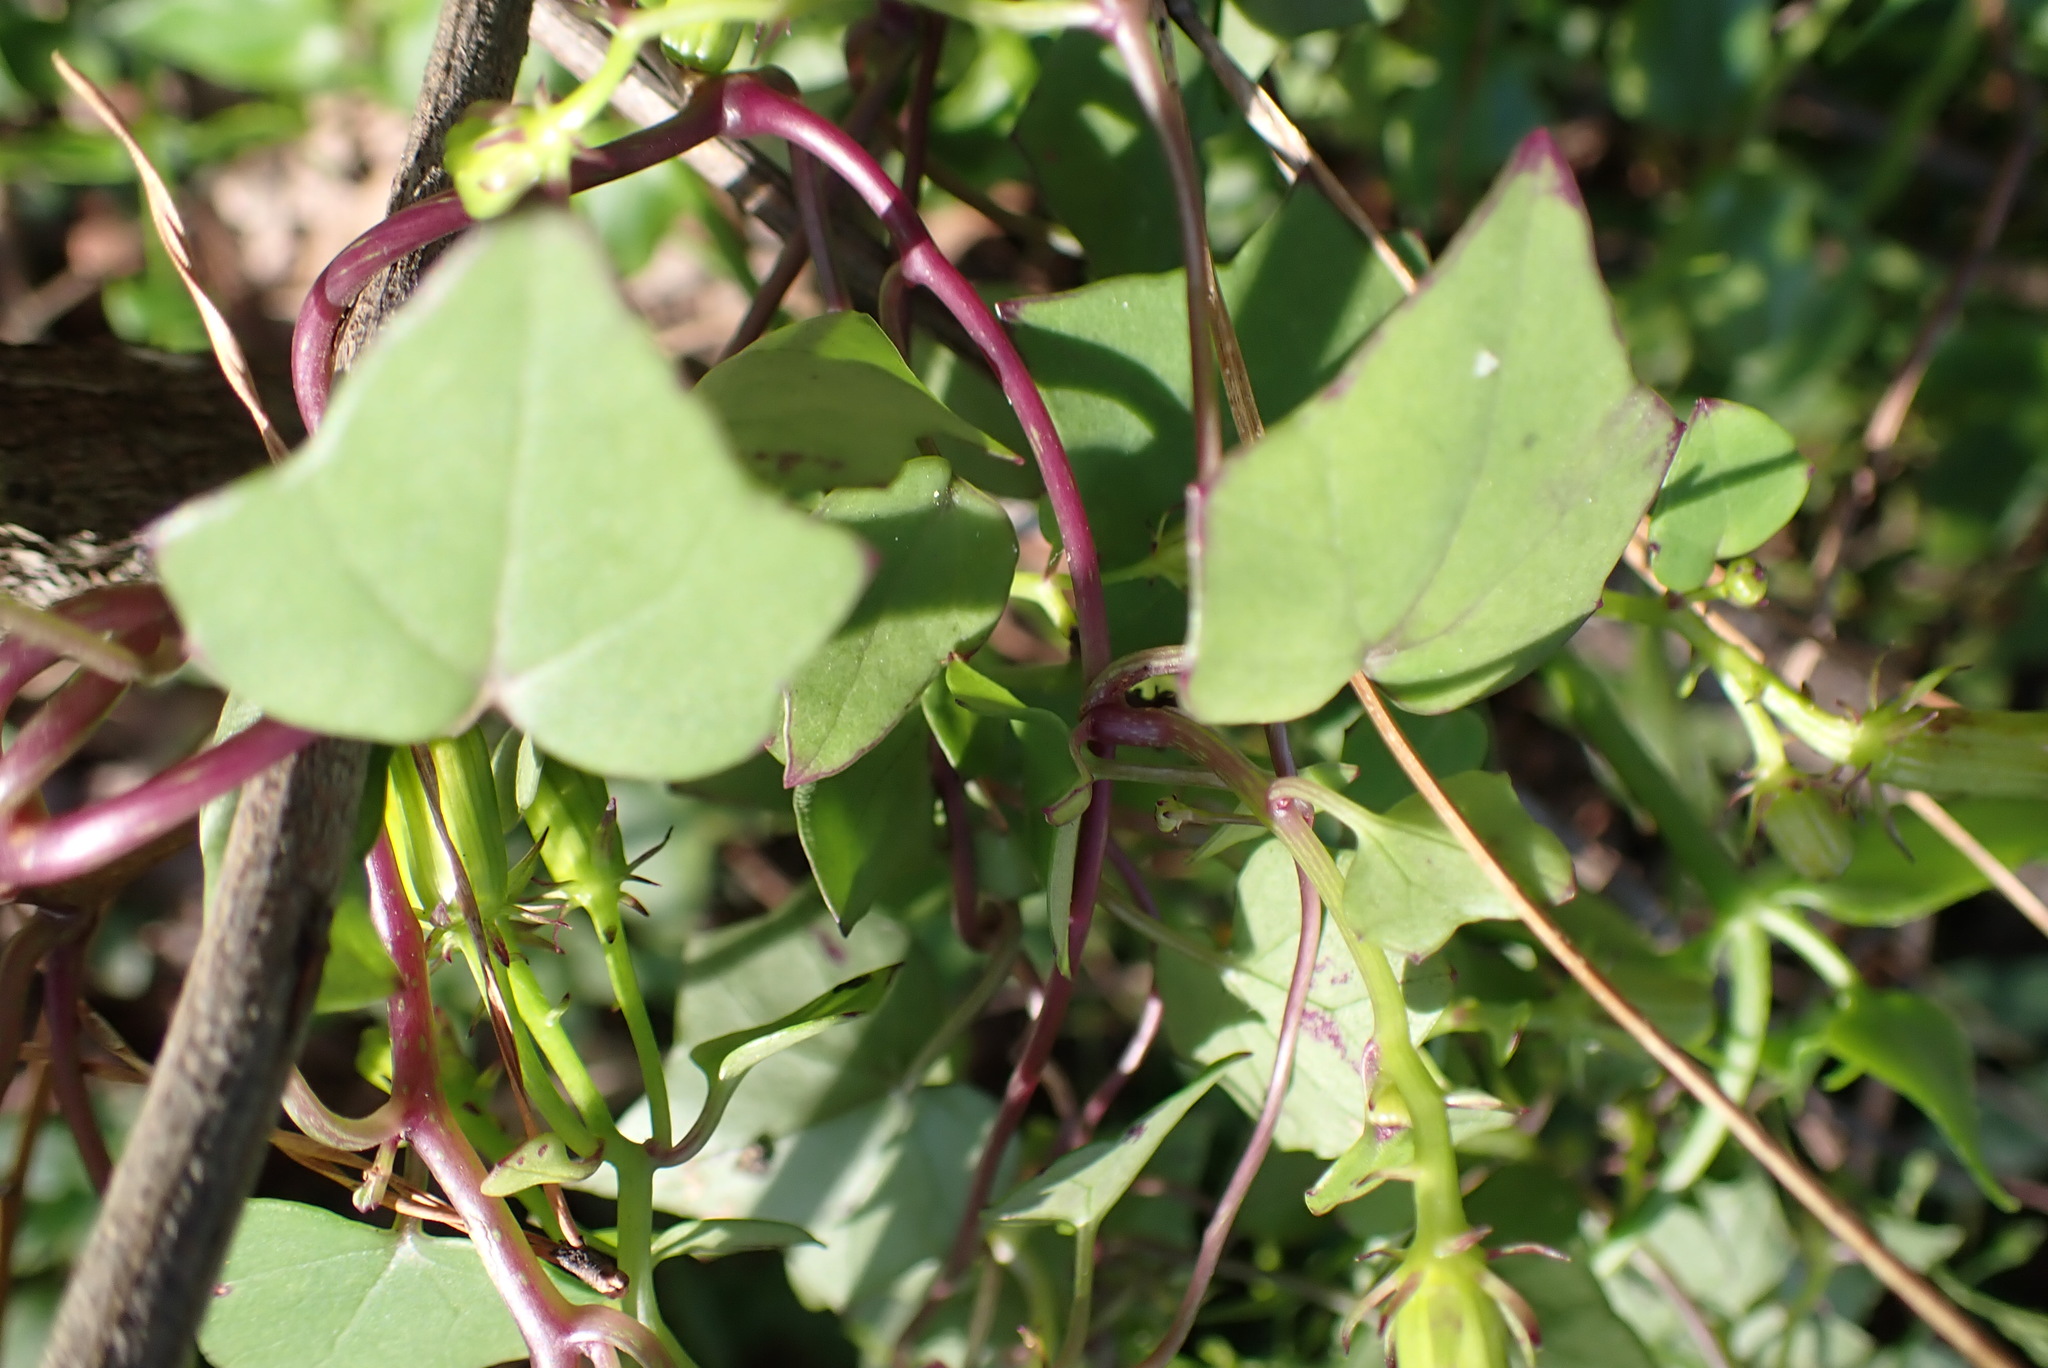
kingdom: Plantae
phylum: Tracheophyta
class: Magnoliopsida
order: Asterales
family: Asteraceae
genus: Senecio
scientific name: Senecio tamoides
